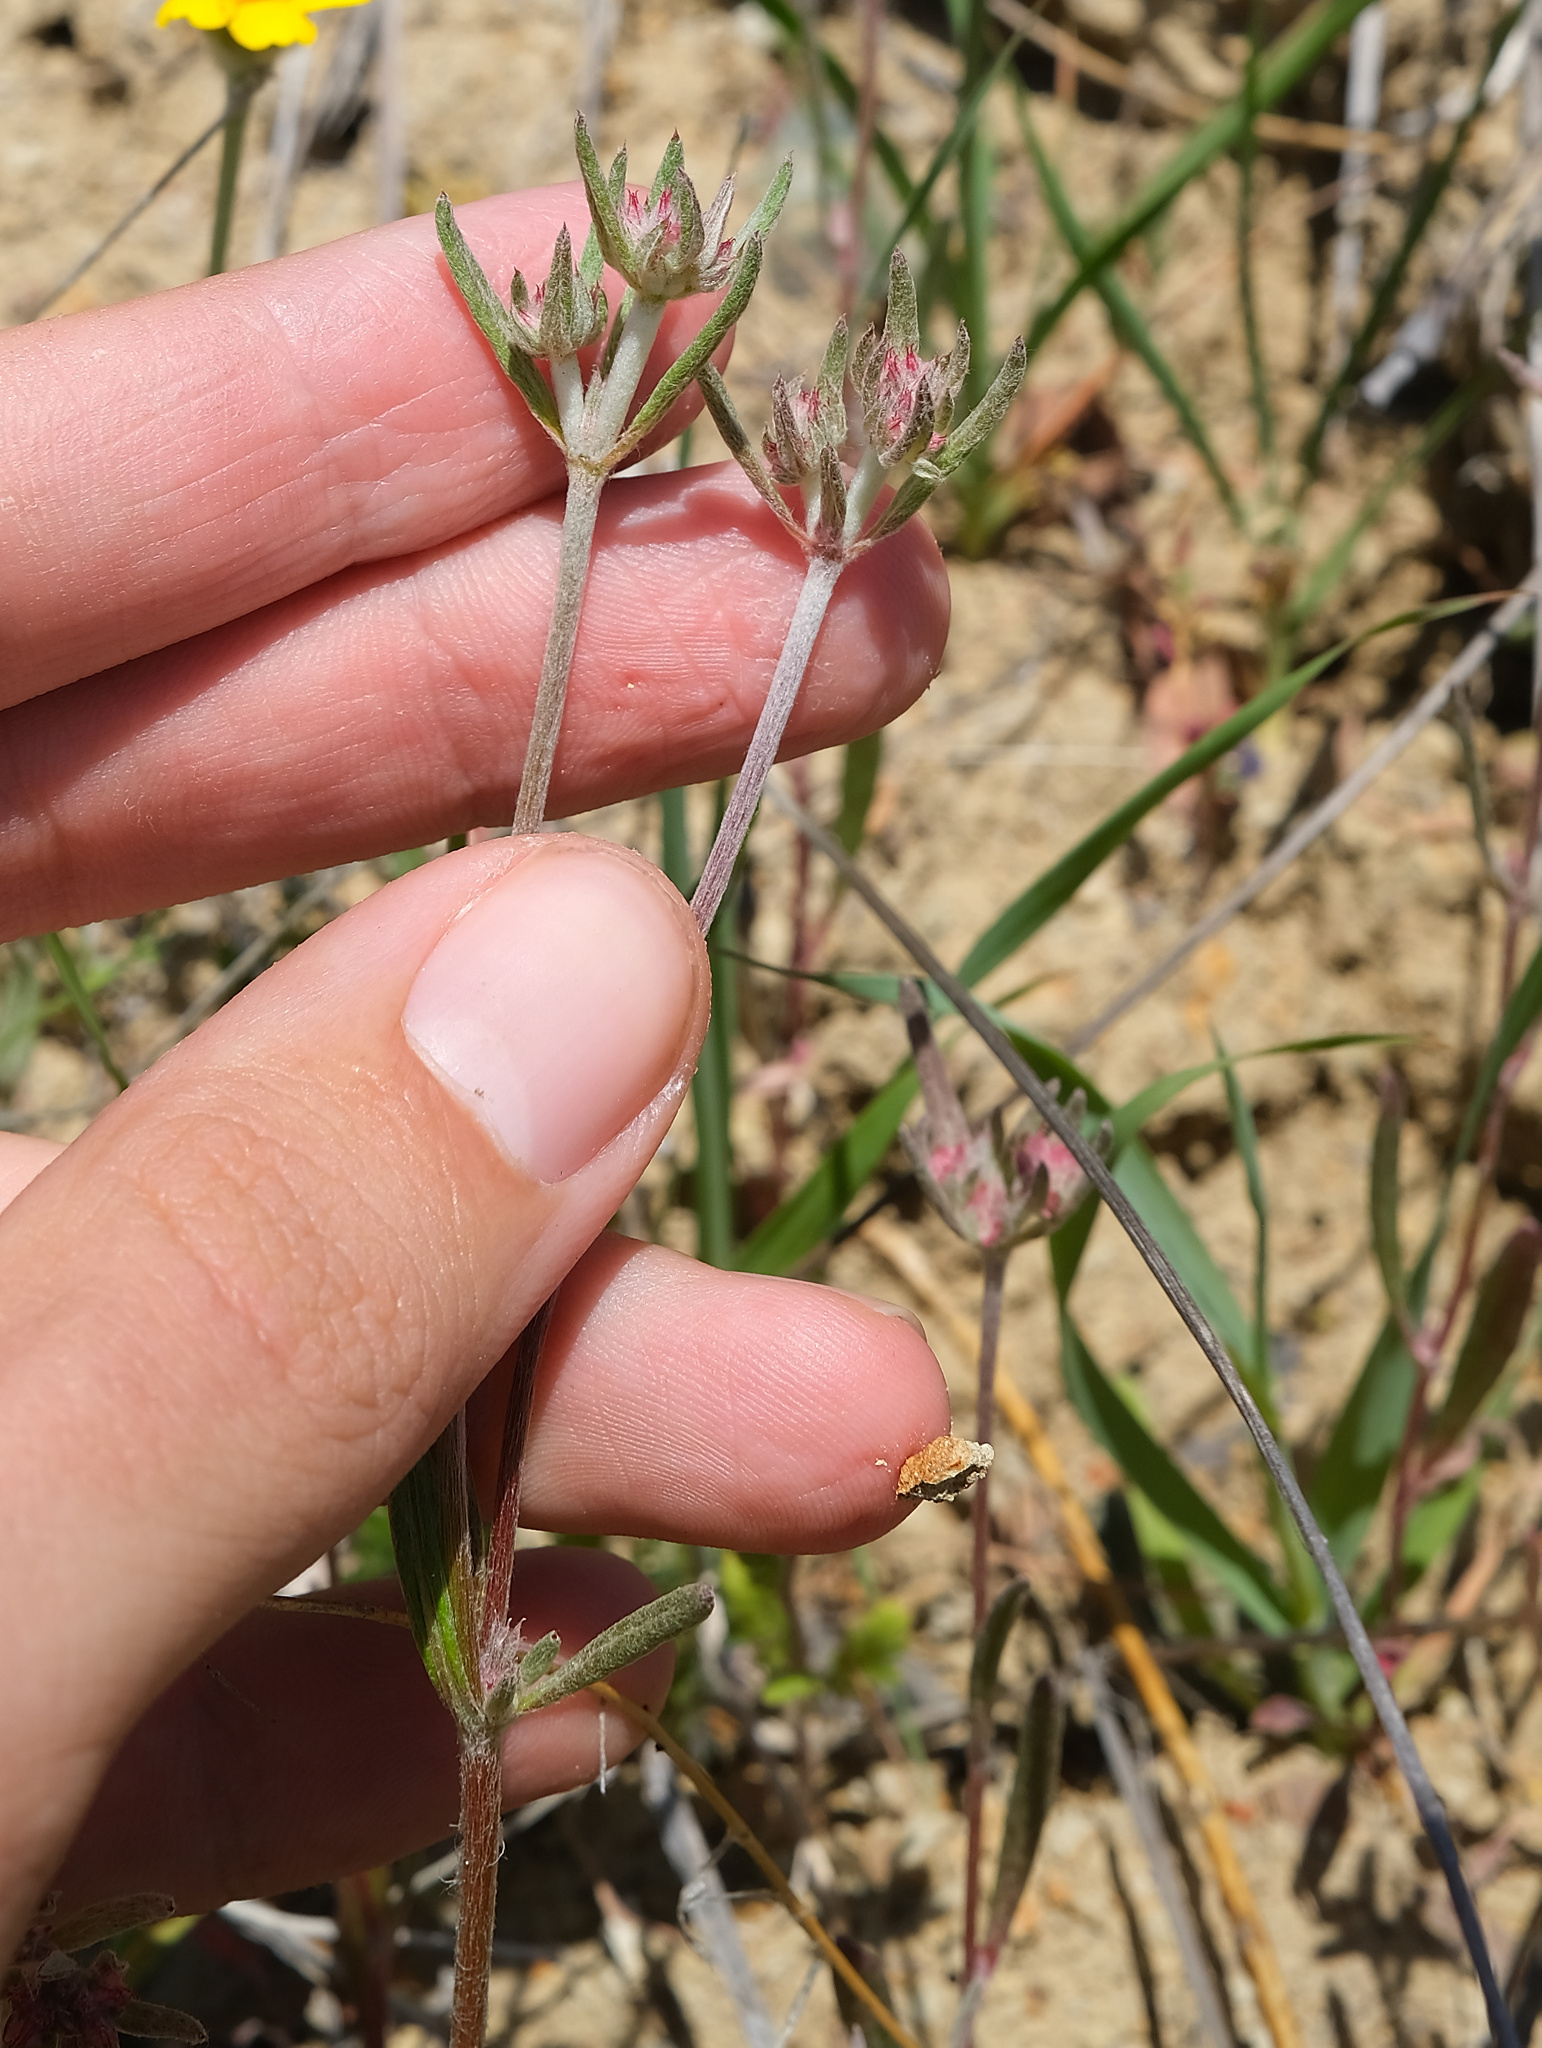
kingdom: Plantae
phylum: Tracheophyta
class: Magnoliopsida
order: Caryophyllales
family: Polygonaceae
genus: Chorizanthe
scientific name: Chorizanthe membranacea
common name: Pink spineflower
